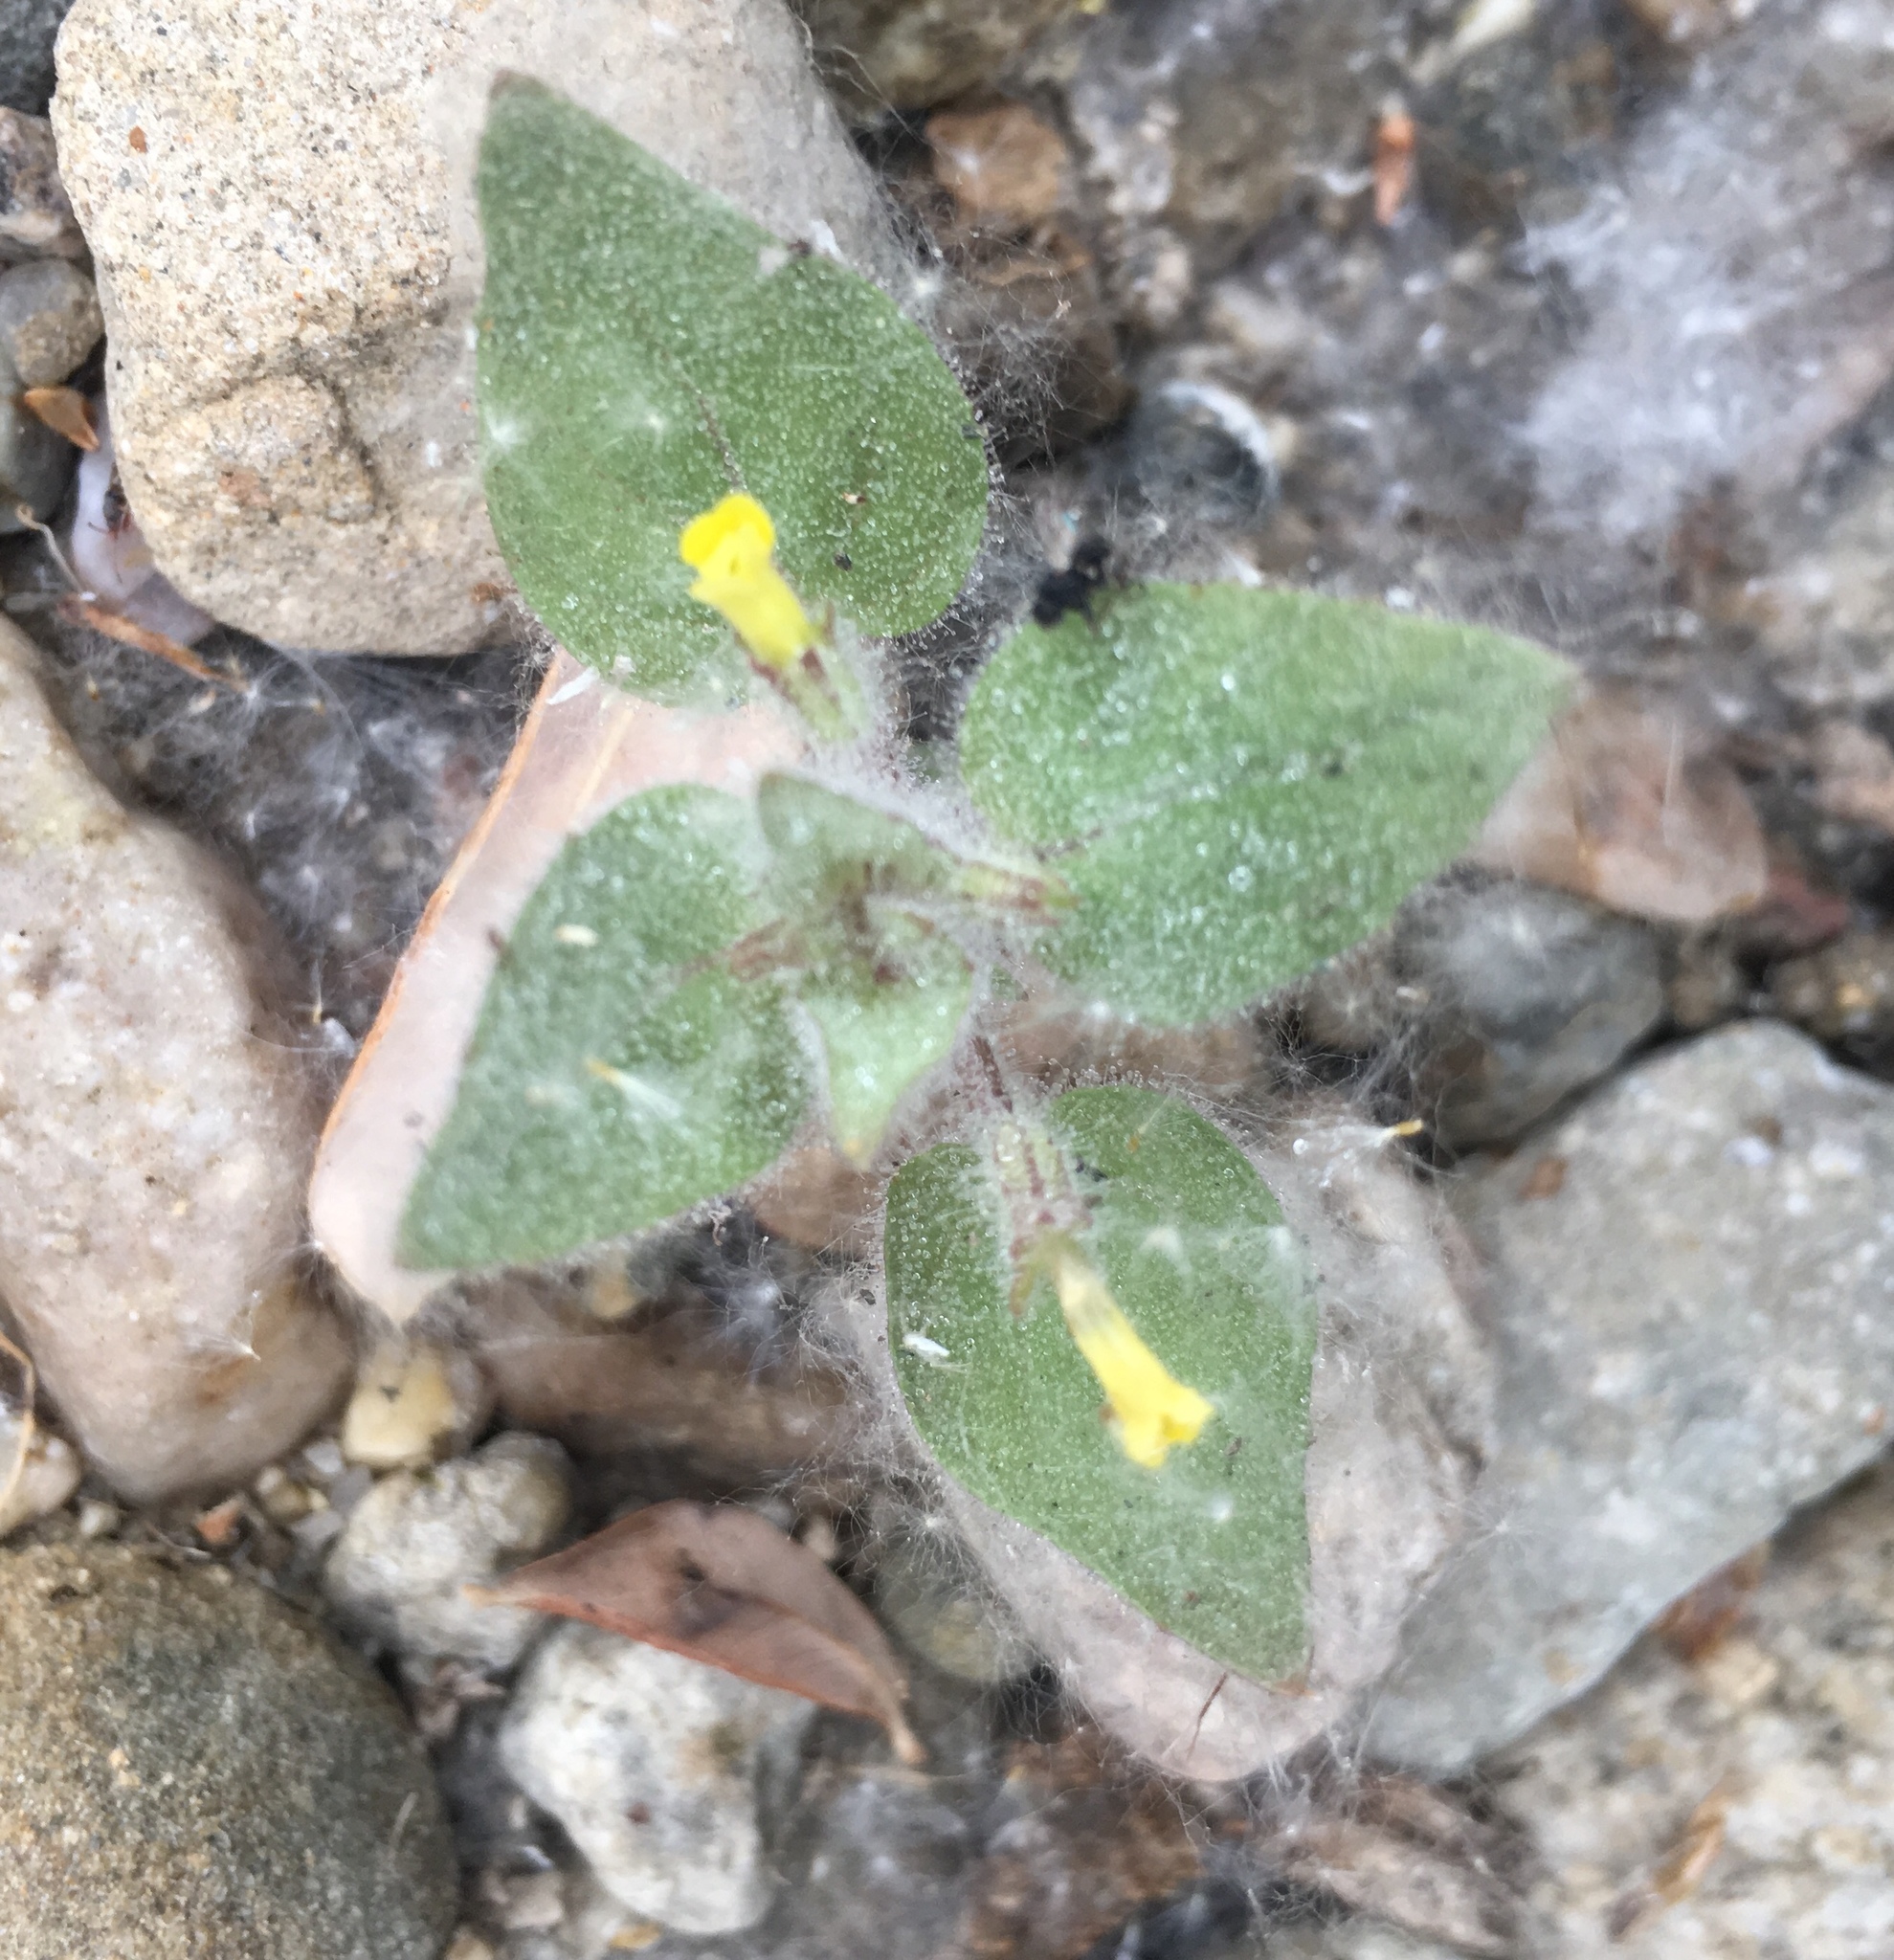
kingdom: Plantae
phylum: Tracheophyta
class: Magnoliopsida
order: Lamiales
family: Phrymaceae
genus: Erythranthe
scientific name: Erythranthe floribunda
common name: Floriferous monkeyflower
